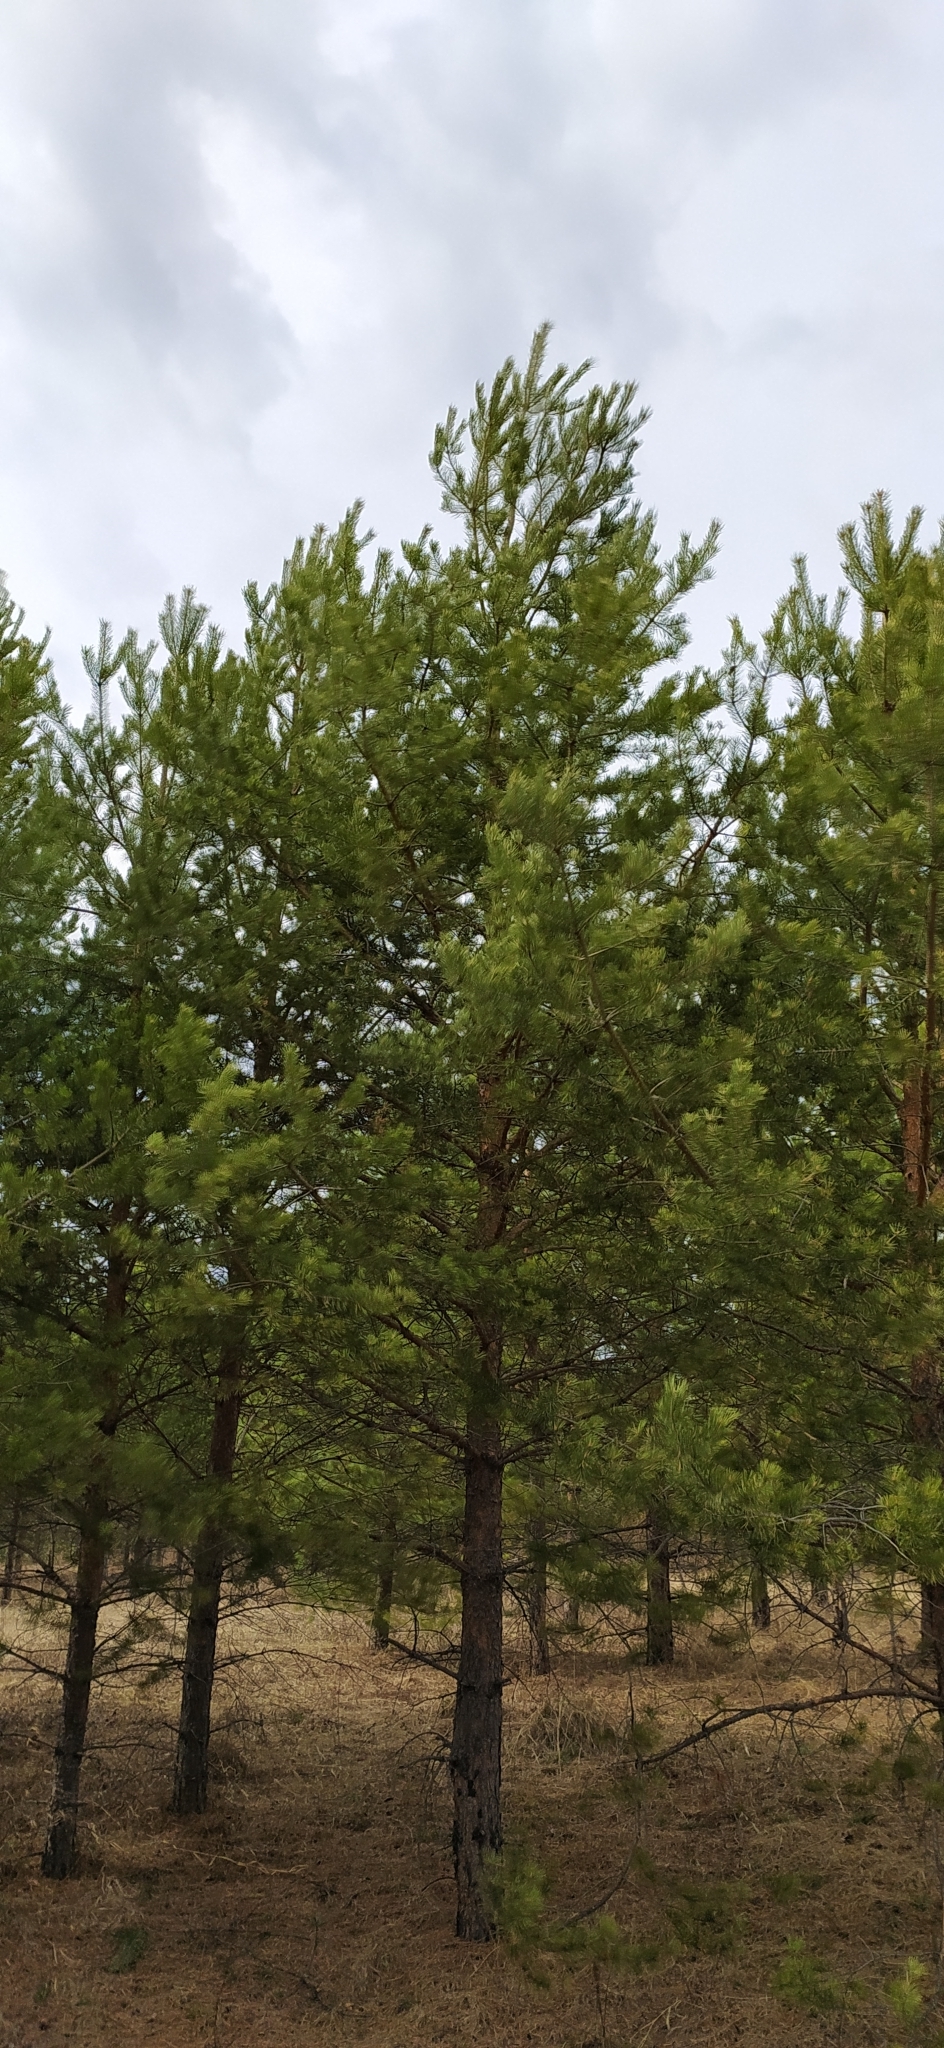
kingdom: Plantae
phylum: Tracheophyta
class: Pinopsida
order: Pinales
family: Pinaceae
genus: Pinus
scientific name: Pinus sylvestris
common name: Scots pine
